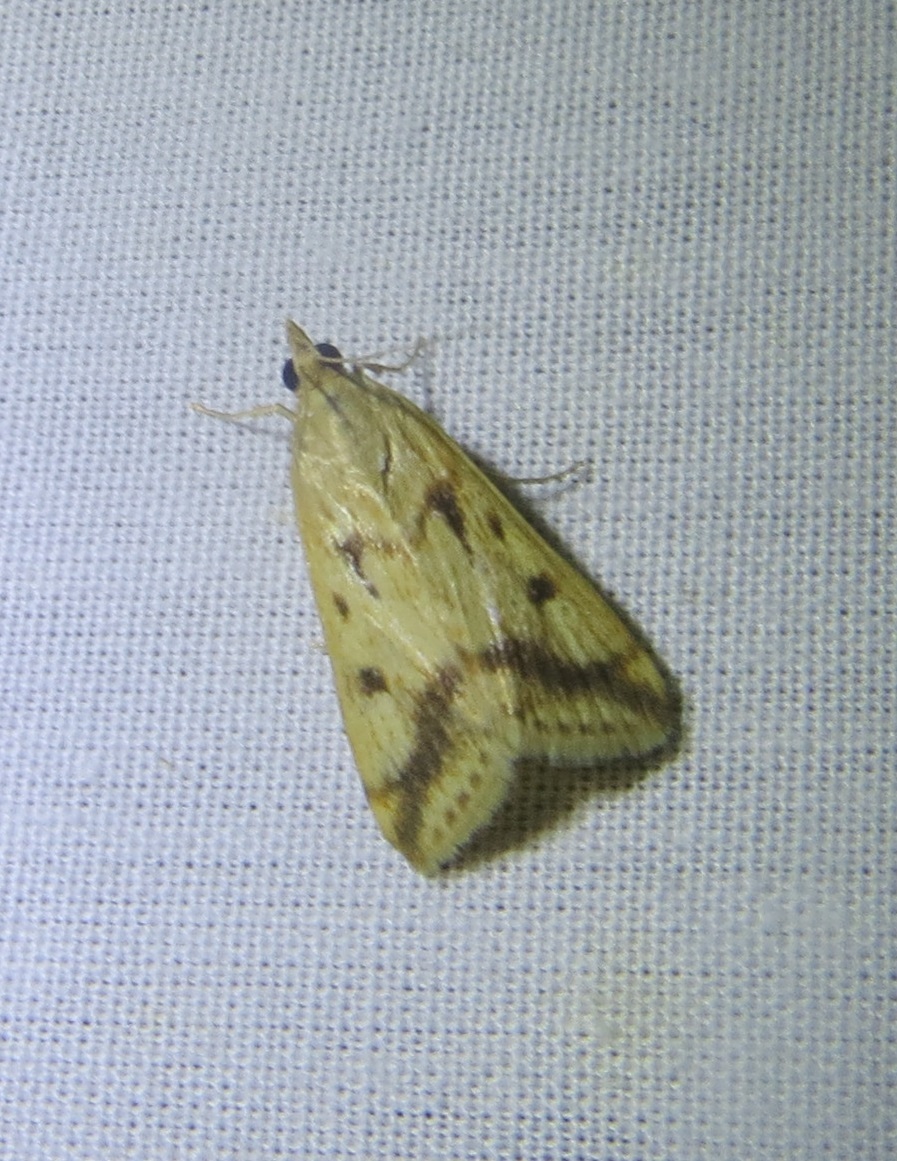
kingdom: Animalia
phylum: Arthropoda
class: Insecta
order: Lepidoptera
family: Crambidae
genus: Achyra
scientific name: Achyra bifidalis
